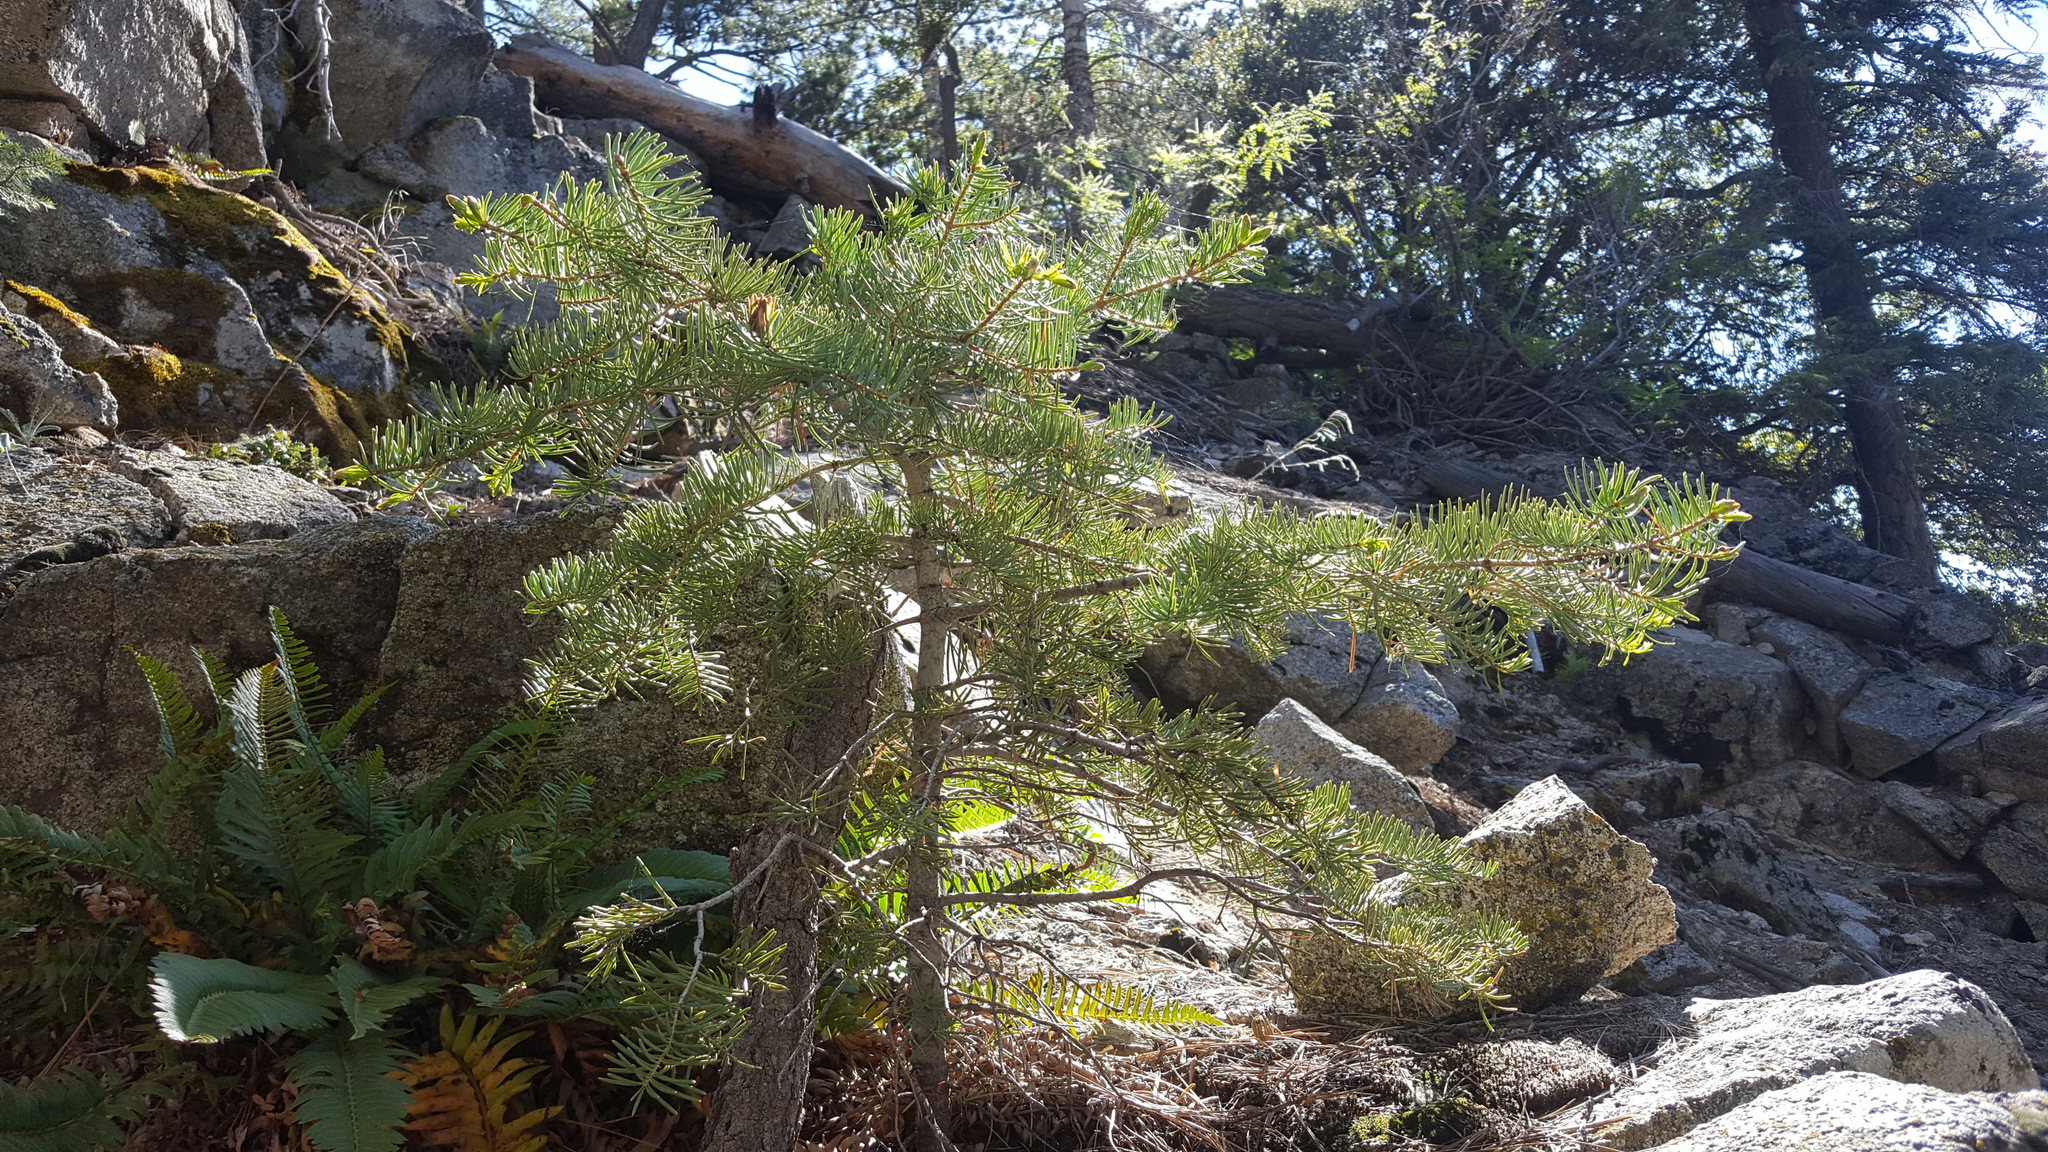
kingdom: Plantae
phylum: Tracheophyta
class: Pinopsida
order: Pinales
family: Pinaceae
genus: Abies
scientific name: Abies concolor
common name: Colorado fir
